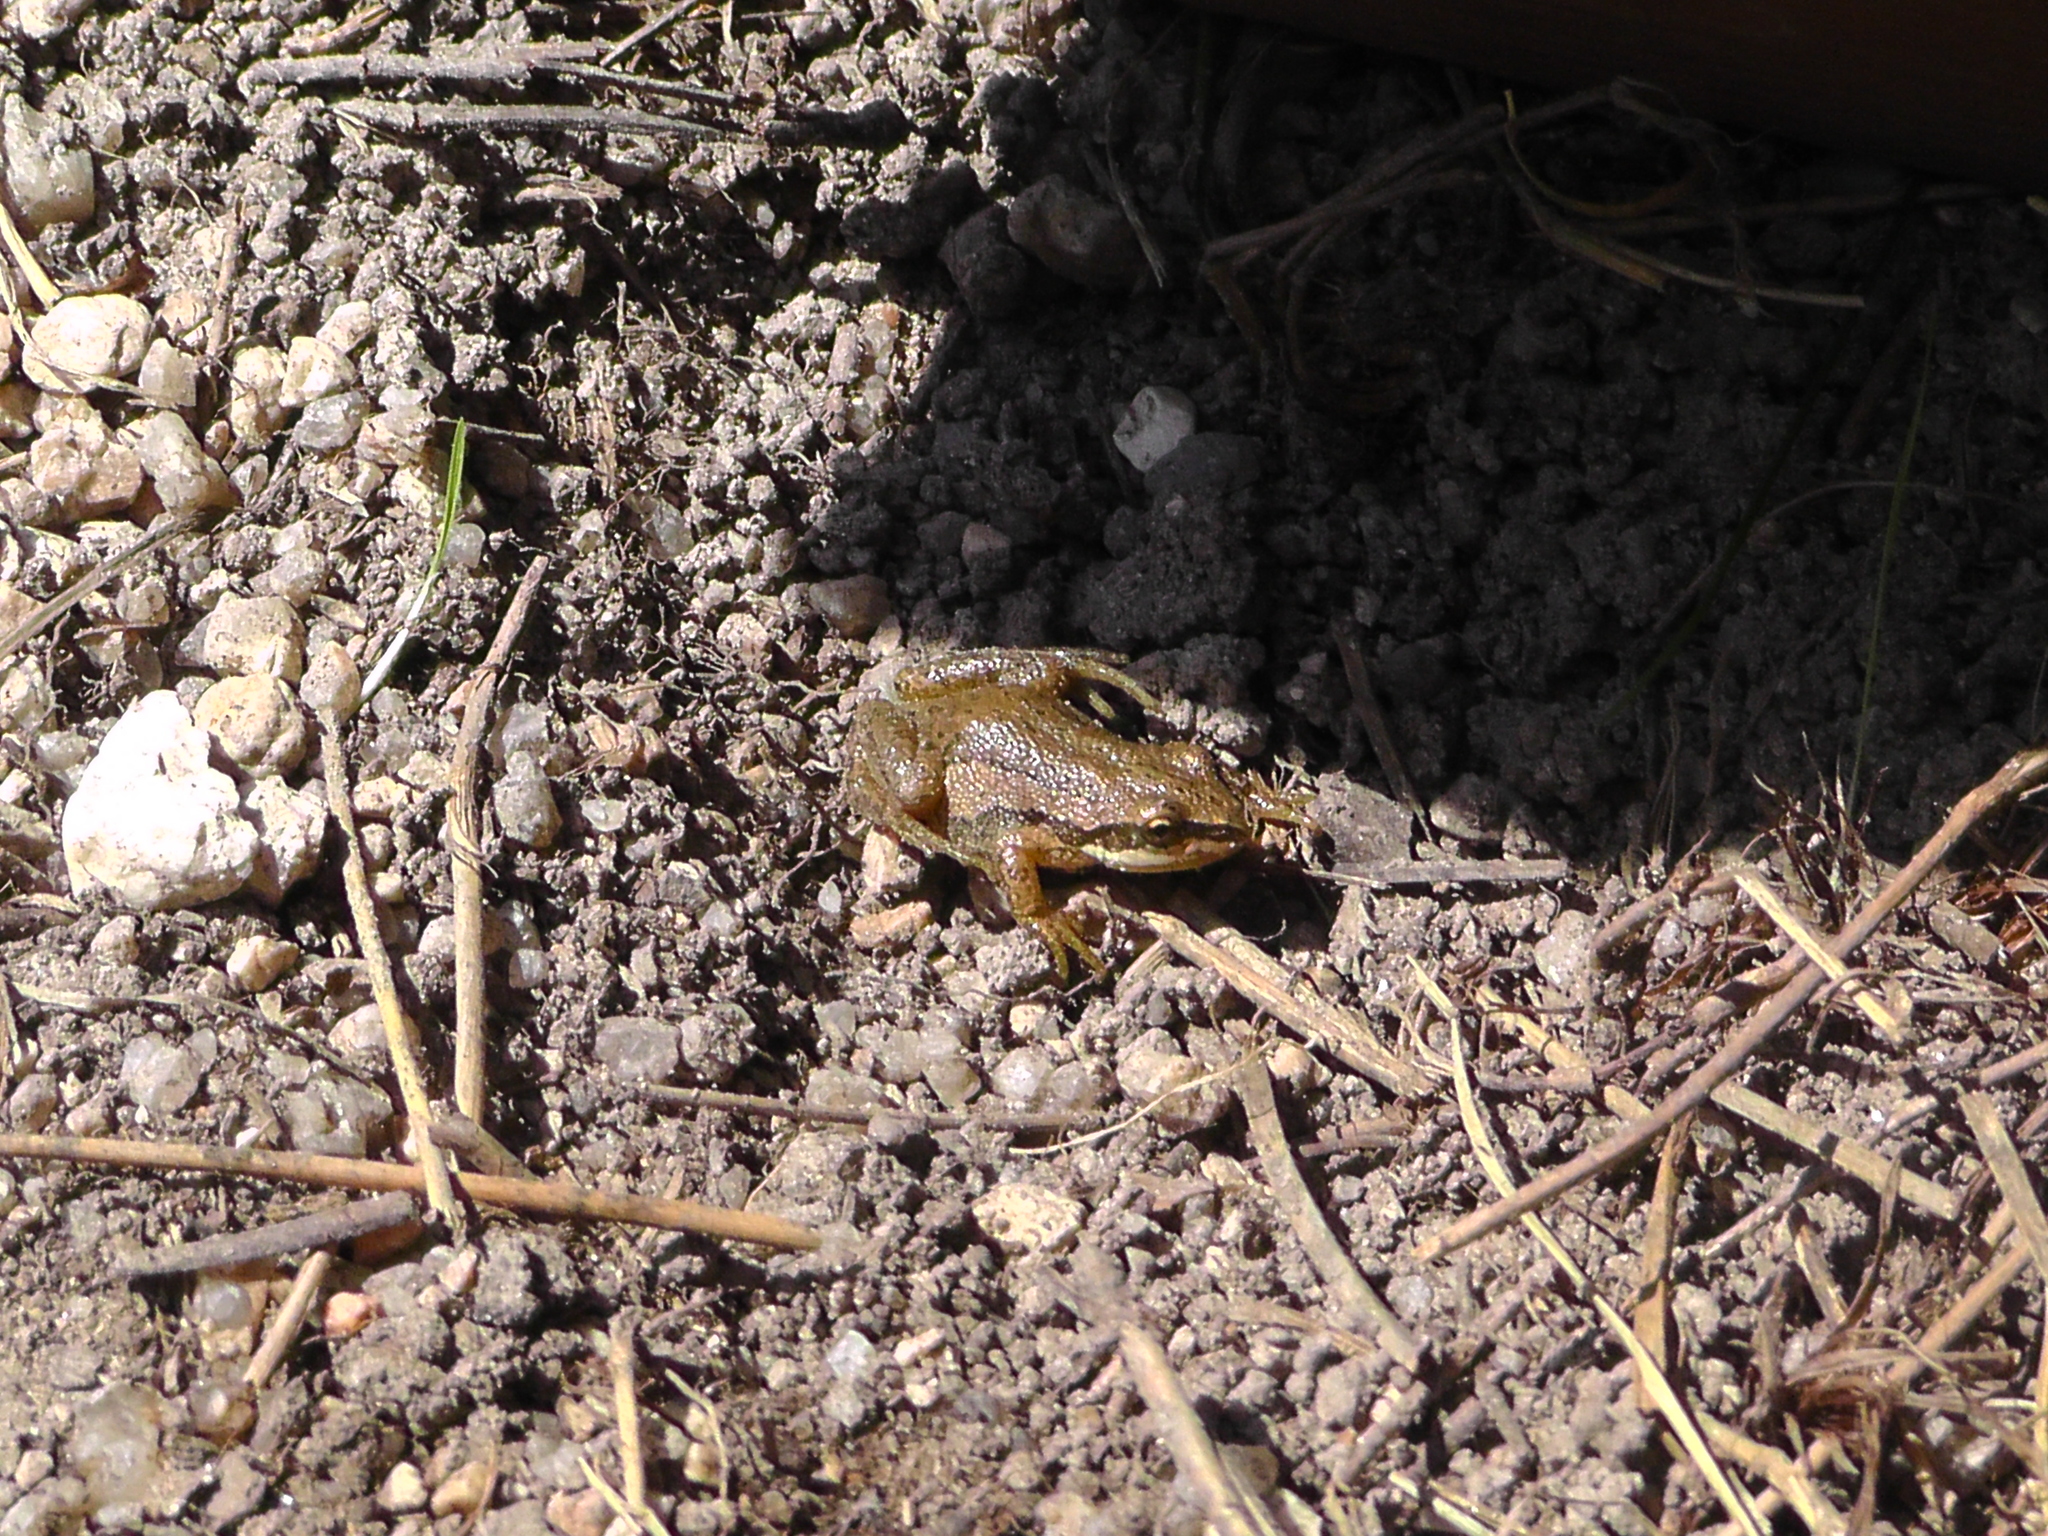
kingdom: Animalia
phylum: Chordata
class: Amphibia
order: Anura
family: Hylidae
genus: Pseudacris
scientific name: Pseudacris maculata
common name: Boreal chorus frog
